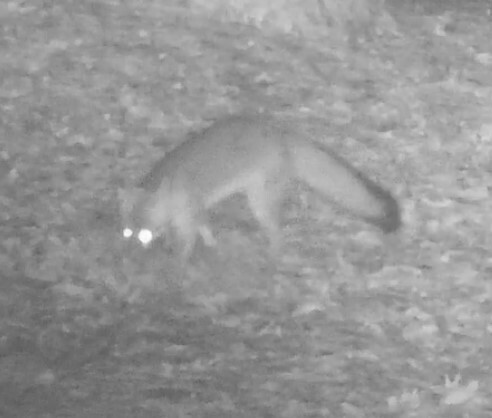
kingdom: Animalia
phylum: Chordata
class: Mammalia
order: Carnivora
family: Canidae
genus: Urocyon
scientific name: Urocyon cinereoargenteus
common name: Gray fox
